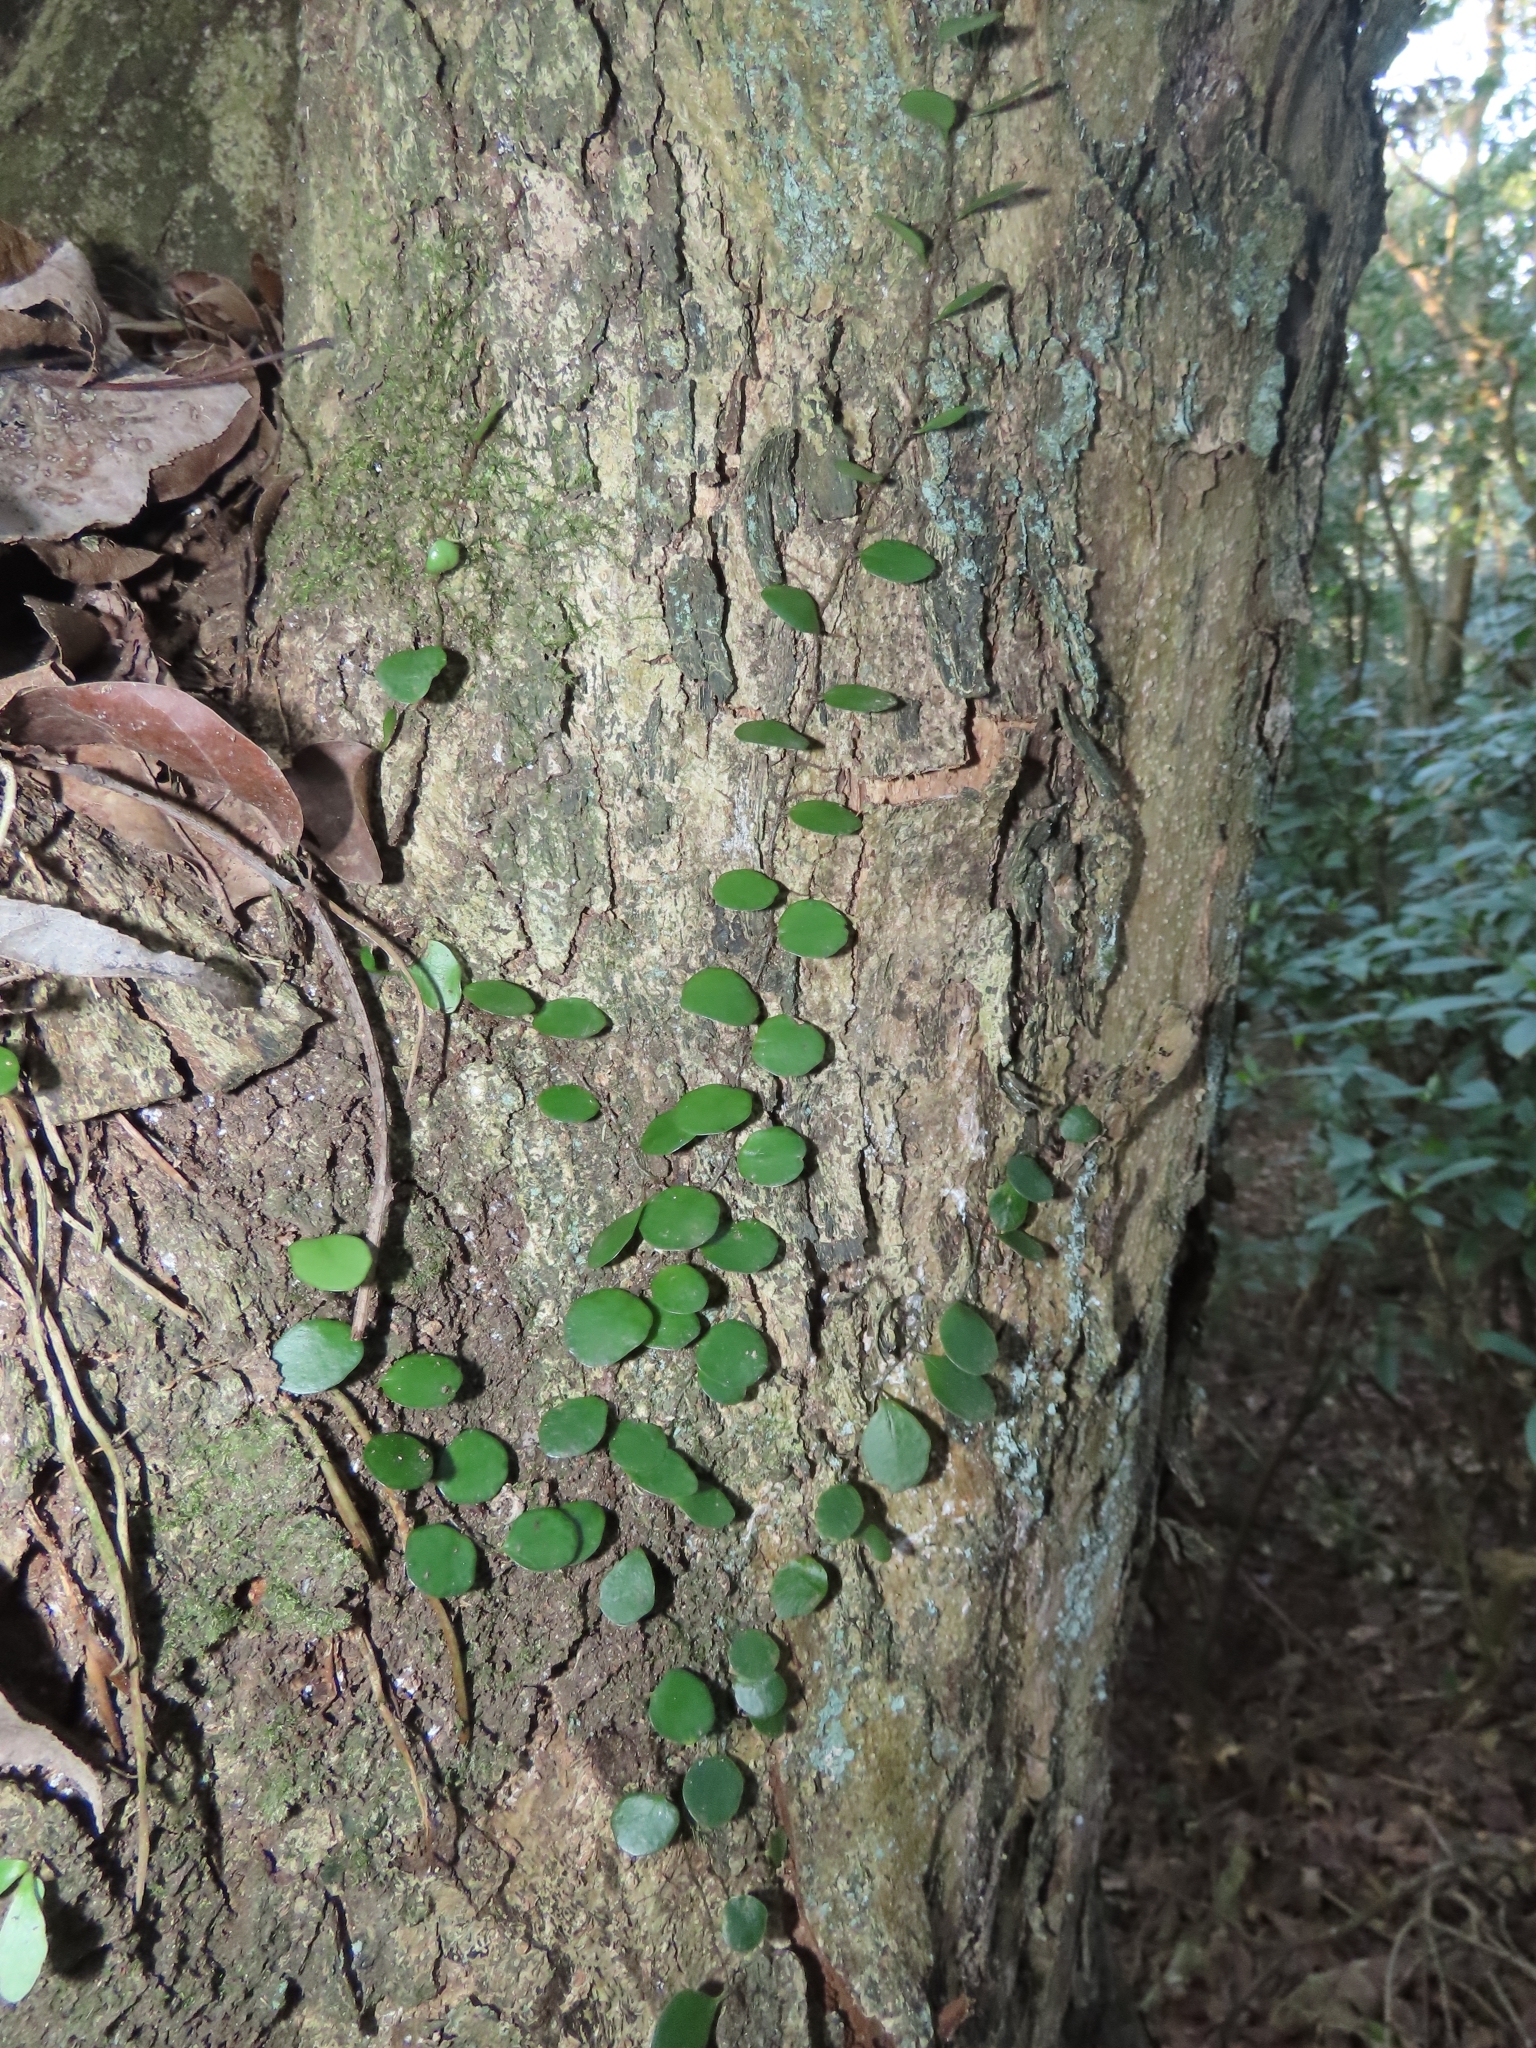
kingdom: Plantae
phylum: Tracheophyta
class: Polypodiopsida
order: Polypodiales
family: Polypodiaceae
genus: Lepisorus
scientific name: Lepisorus microphyllus
